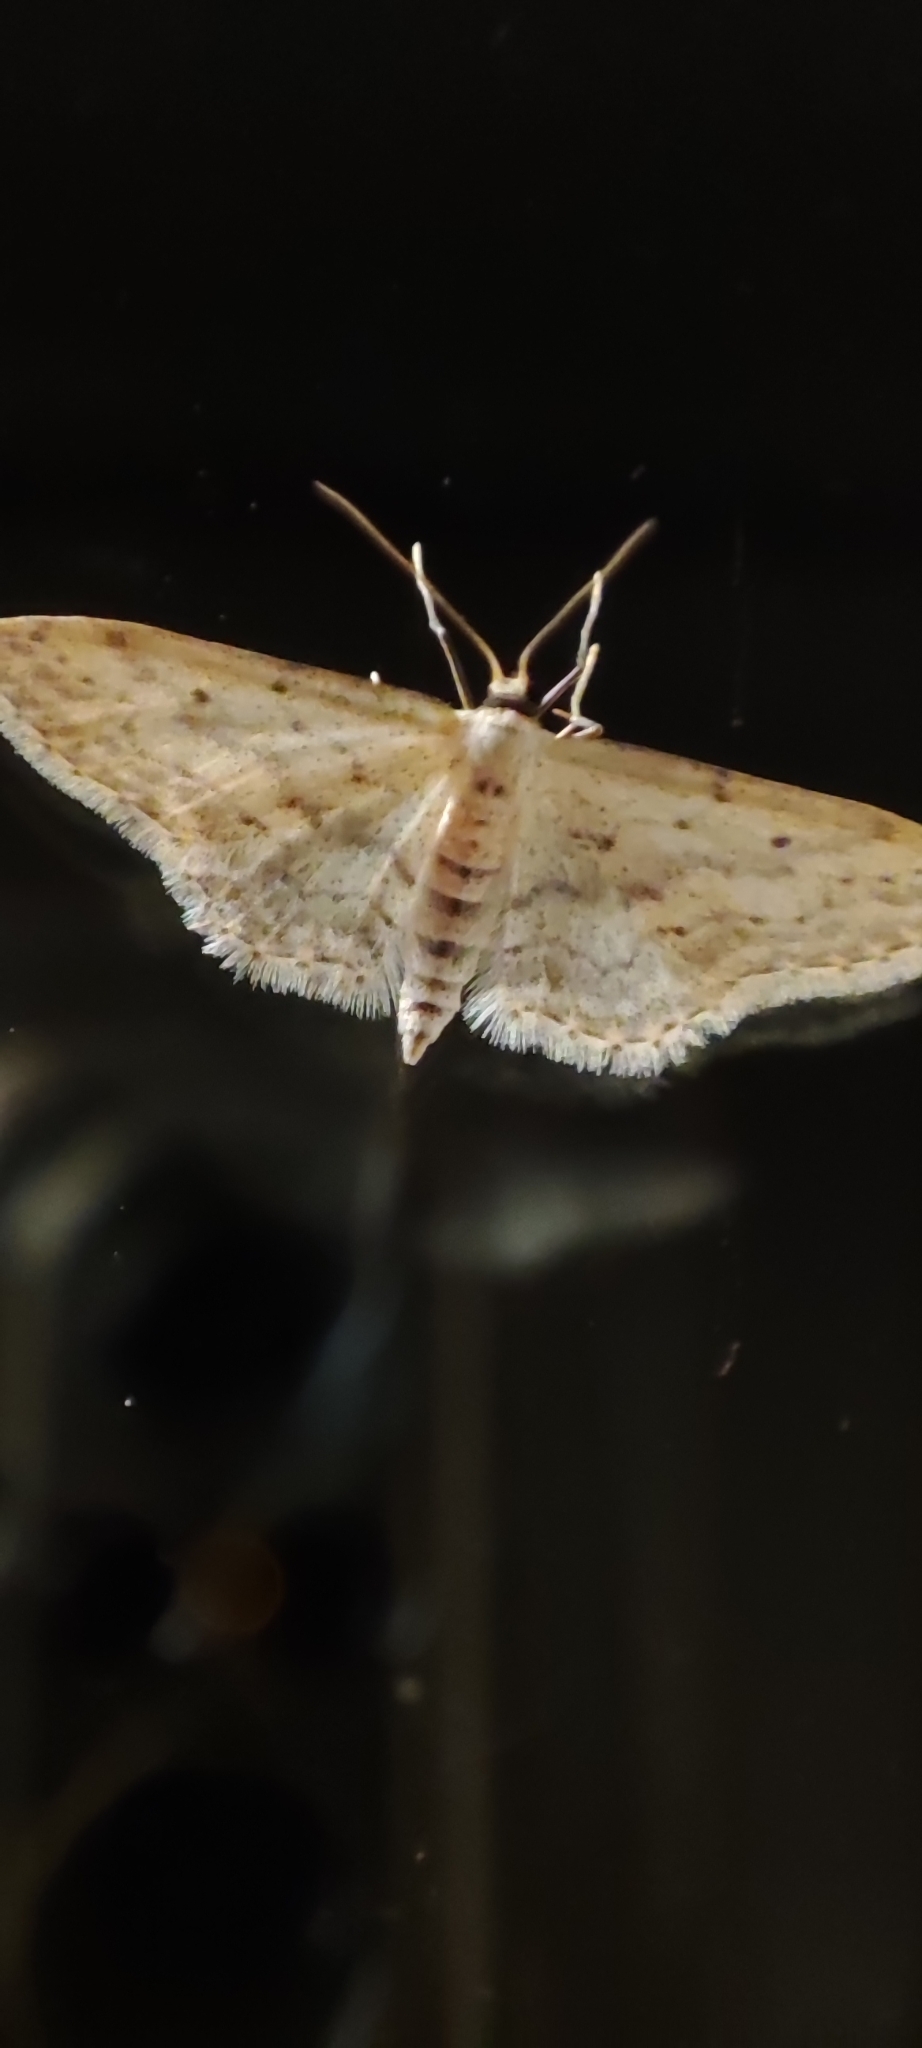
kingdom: Animalia
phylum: Arthropoda
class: Insecta
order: Lepidoptera
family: Geometridae
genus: Idaea
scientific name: Idaea seriata
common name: Small dusty wave
